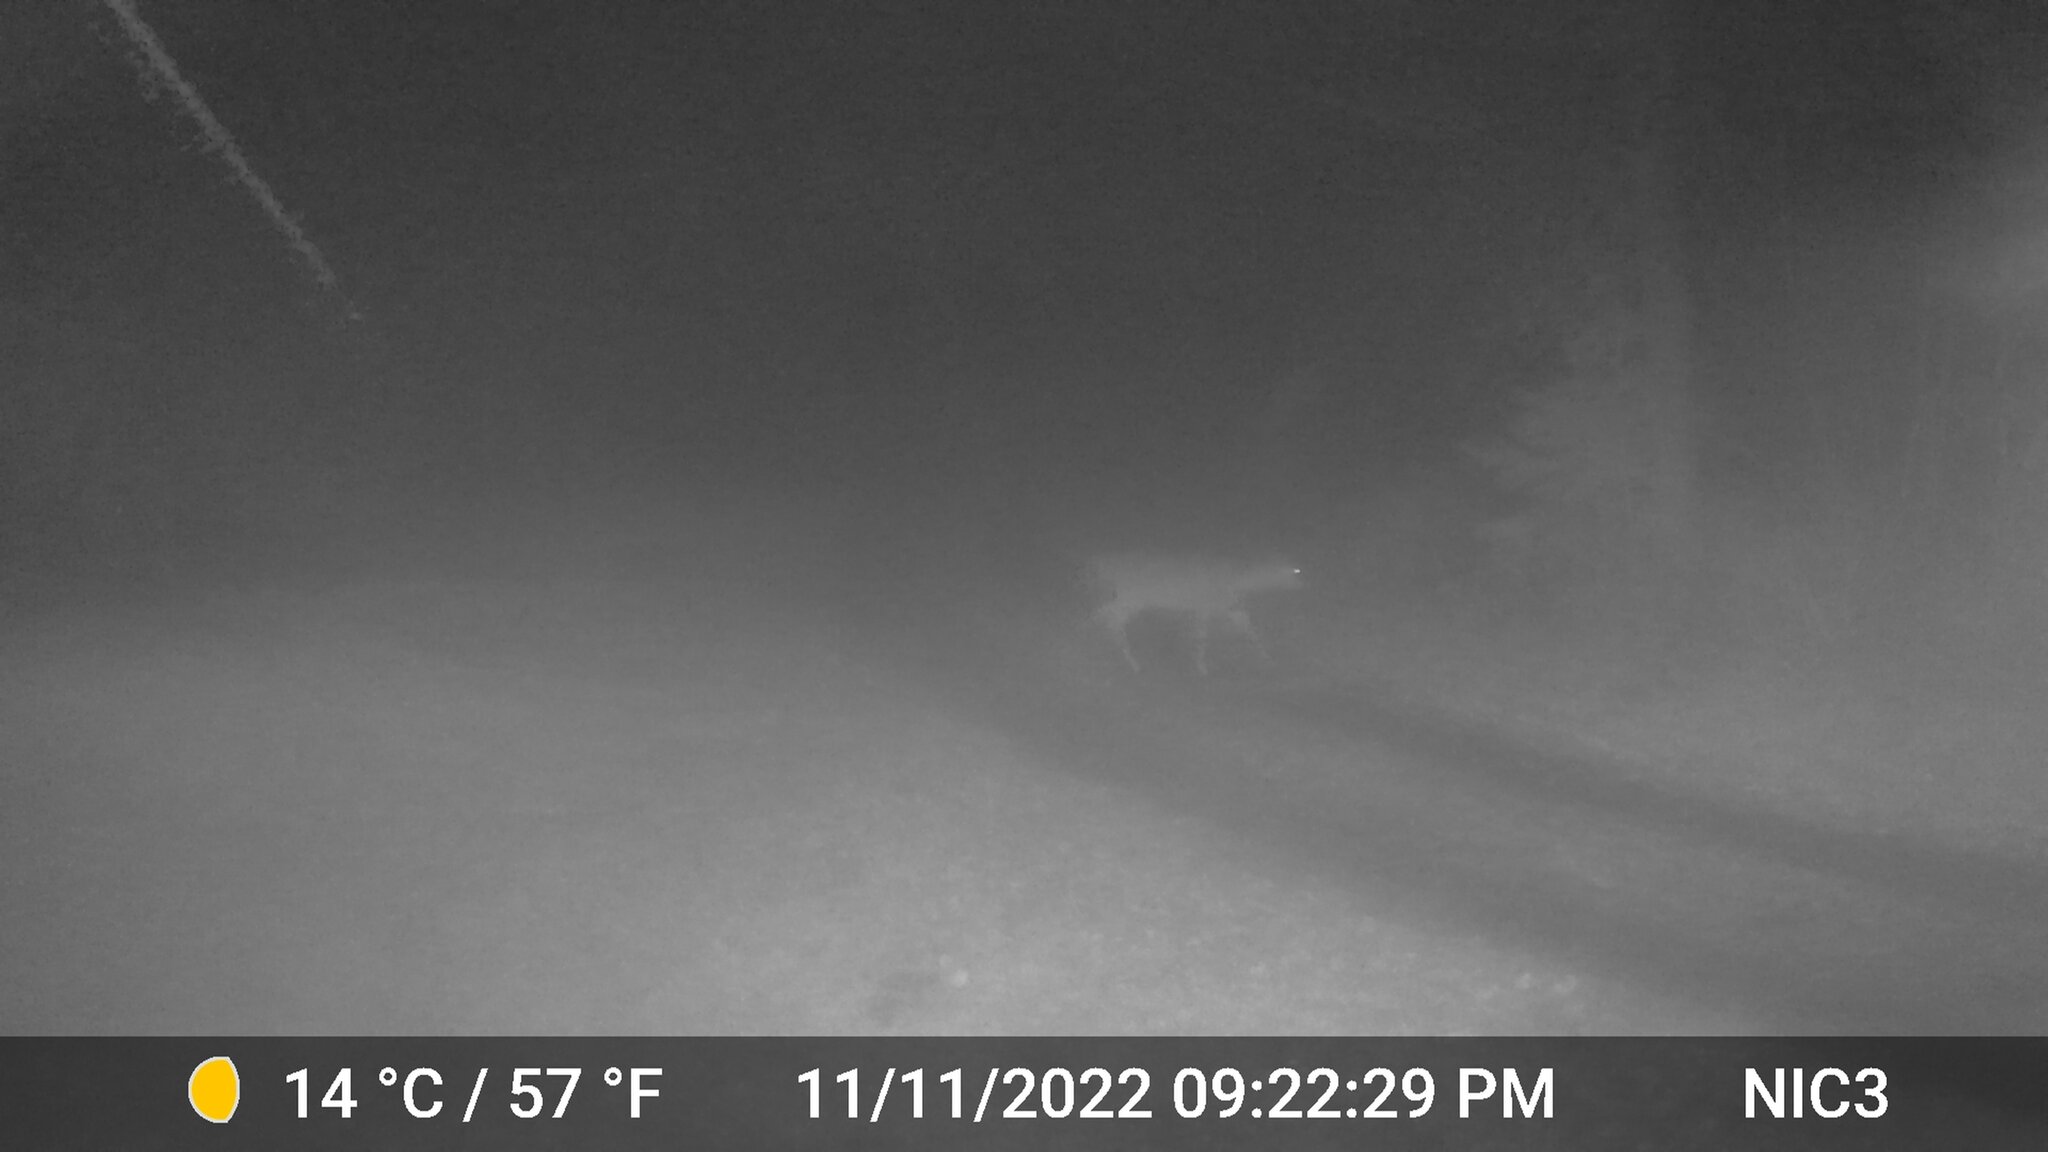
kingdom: Animalia
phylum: Chordata
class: Mammalia
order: Artiodactyla
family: Cervidae
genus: Odocoileus
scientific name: Odocoileus virginianus
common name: White-tailed deer
